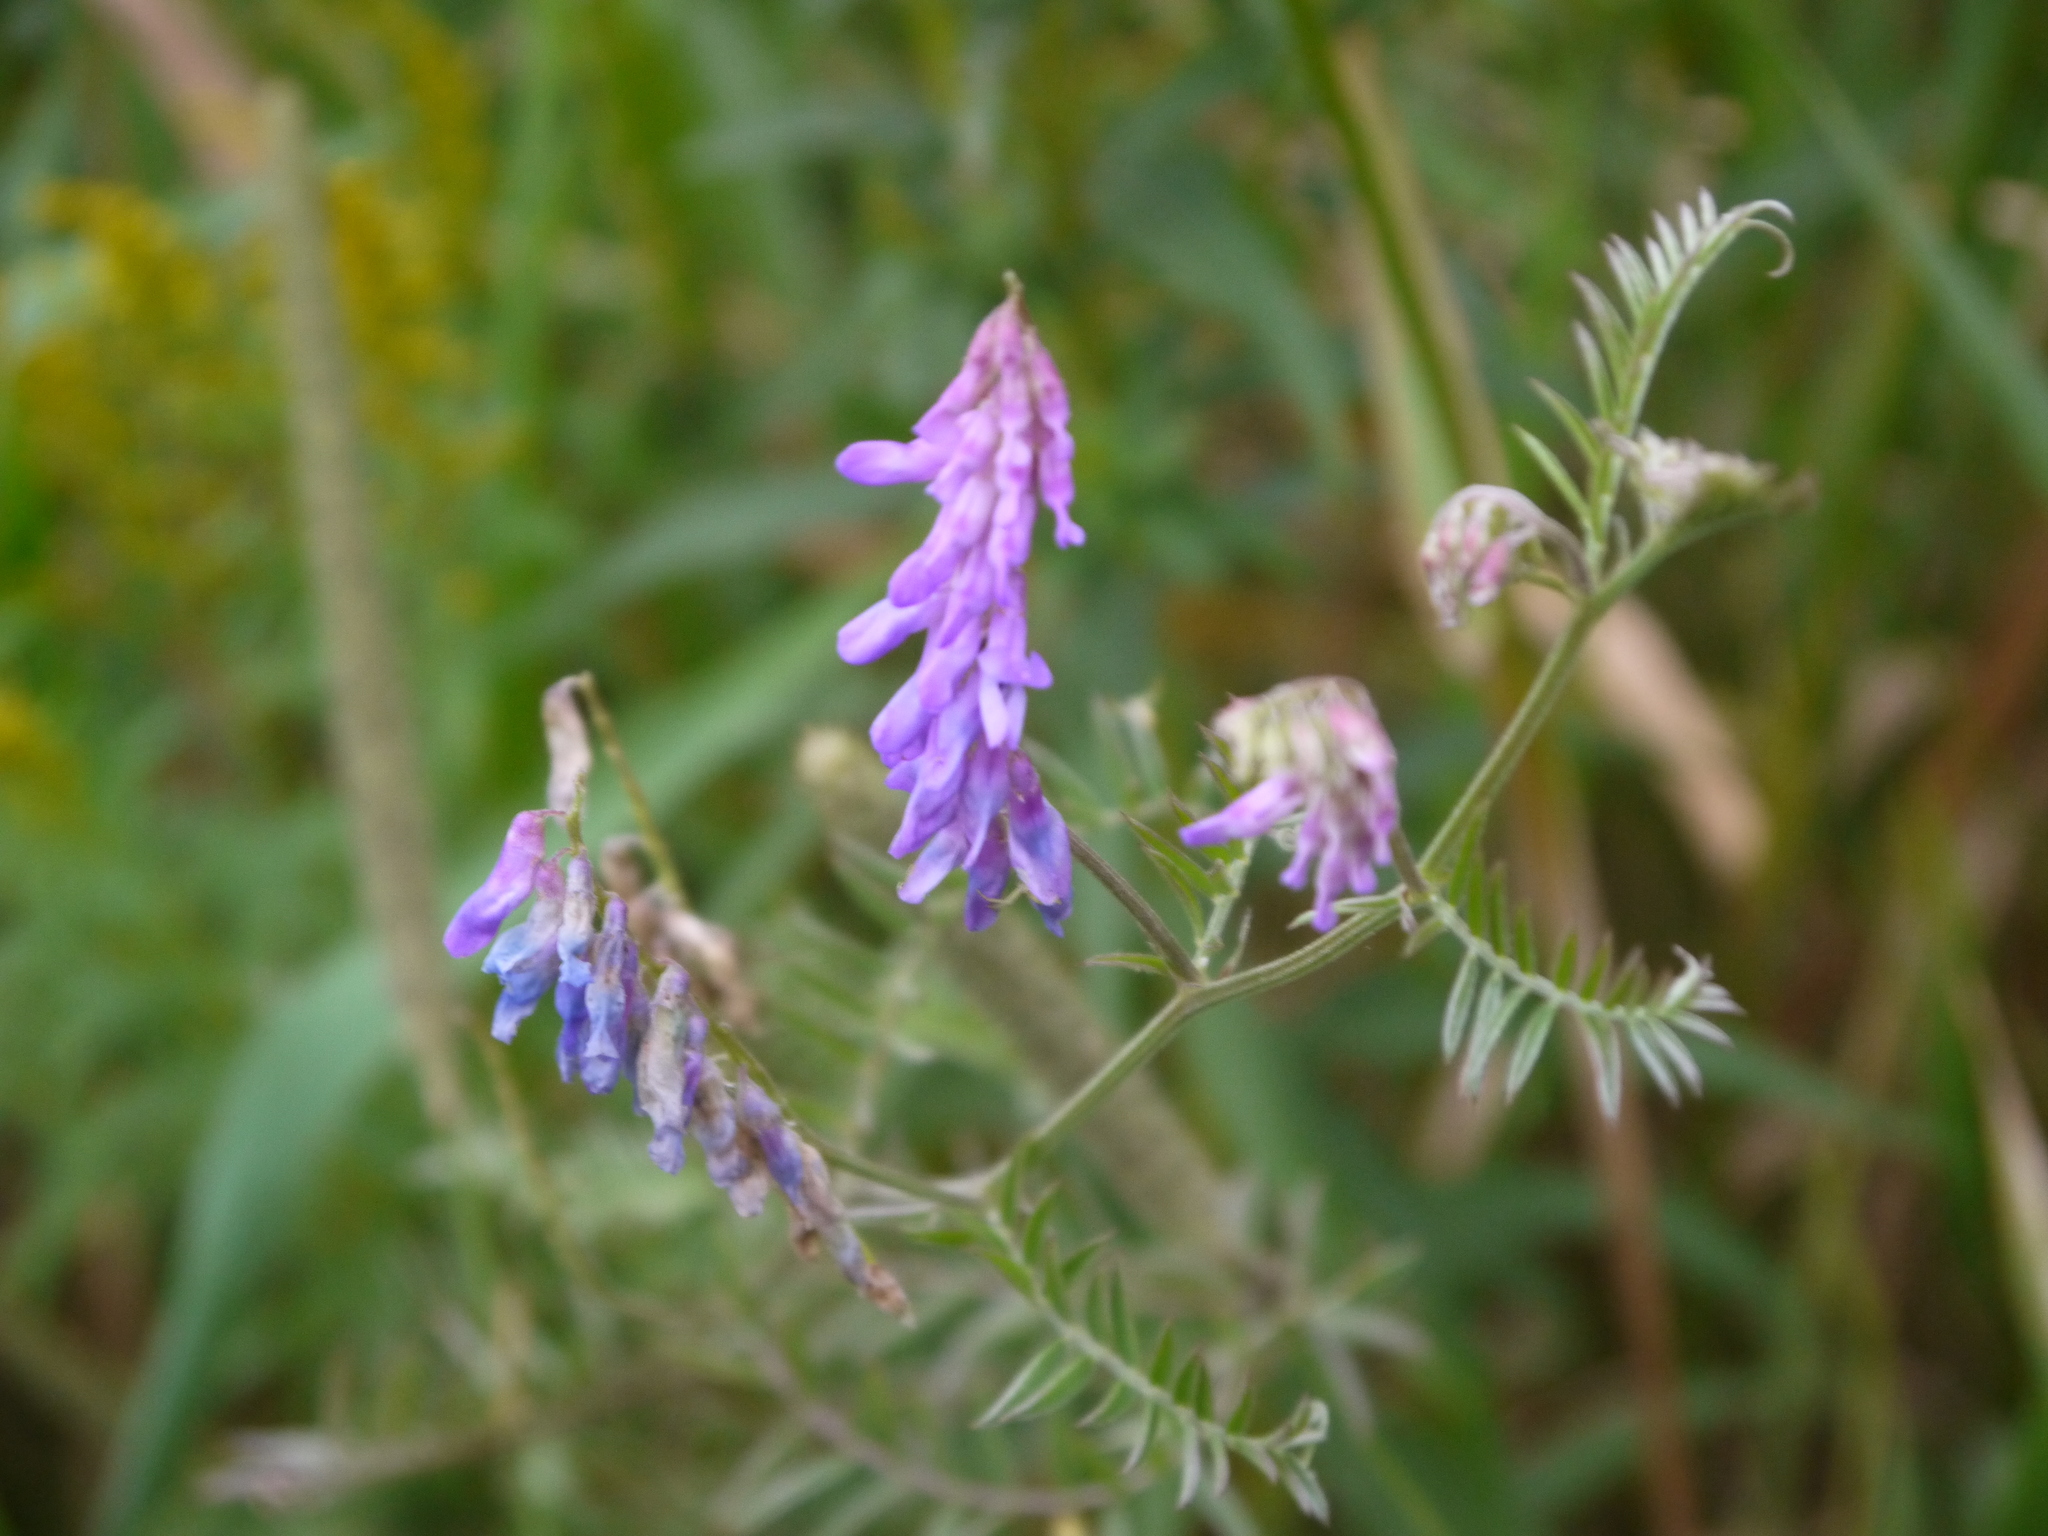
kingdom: Plantae
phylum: Tracheophyta
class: Magnoliopsida
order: Fabales
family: Fabaceae
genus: Vicia
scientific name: Vicia cracca
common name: Bird vetch
